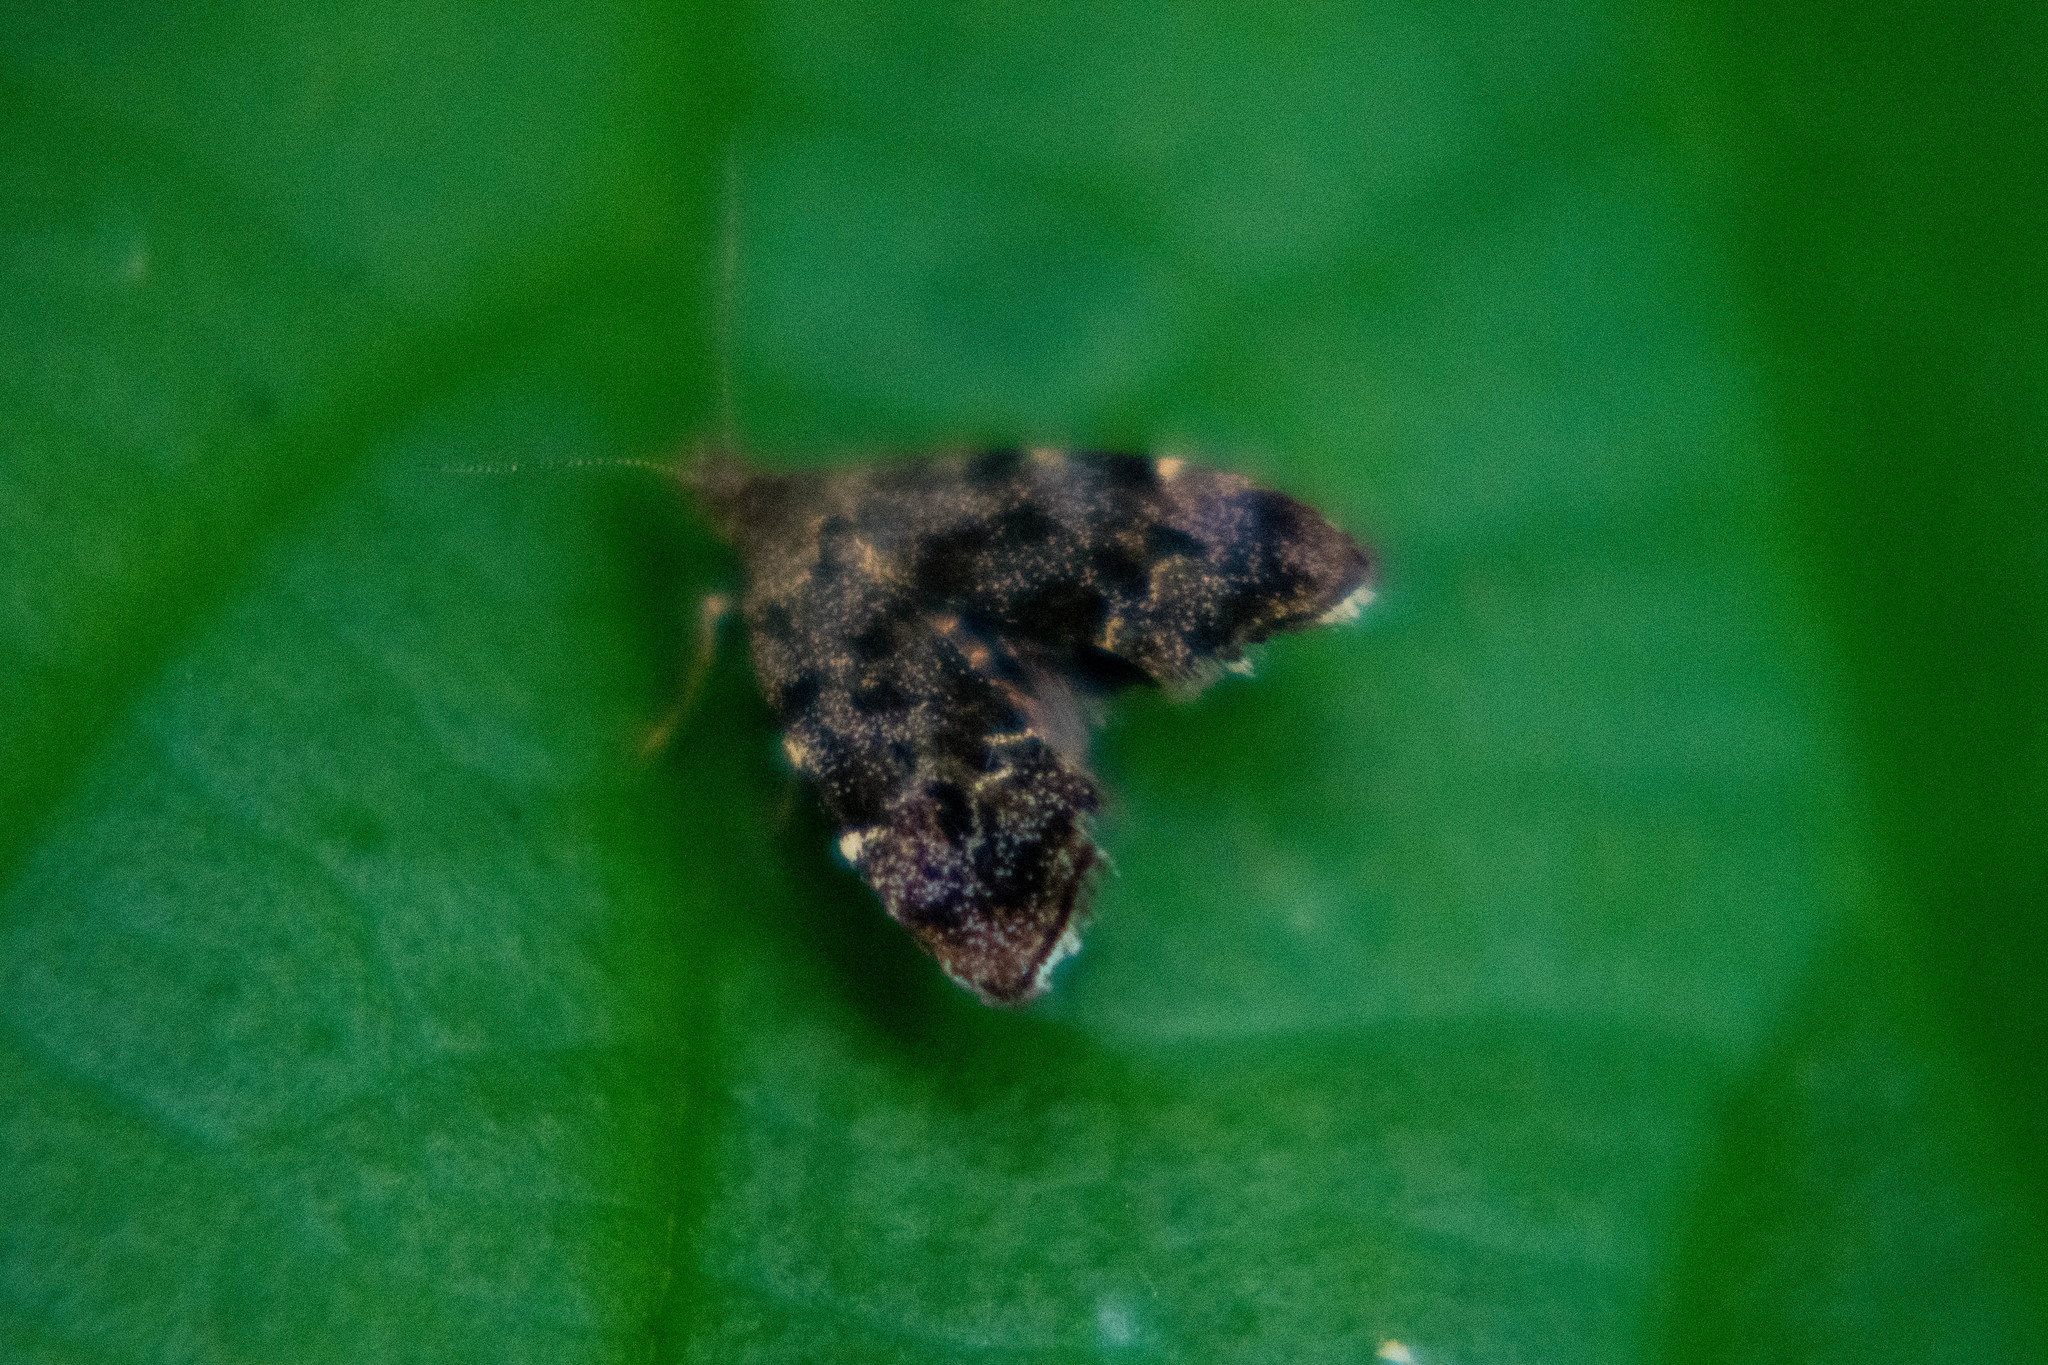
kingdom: Animalia
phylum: Arthropoda
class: Insecta
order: Lepidoptera
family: Choreutidae
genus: Anthophila
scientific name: Anthophila fabriciana
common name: Nettle-tap
